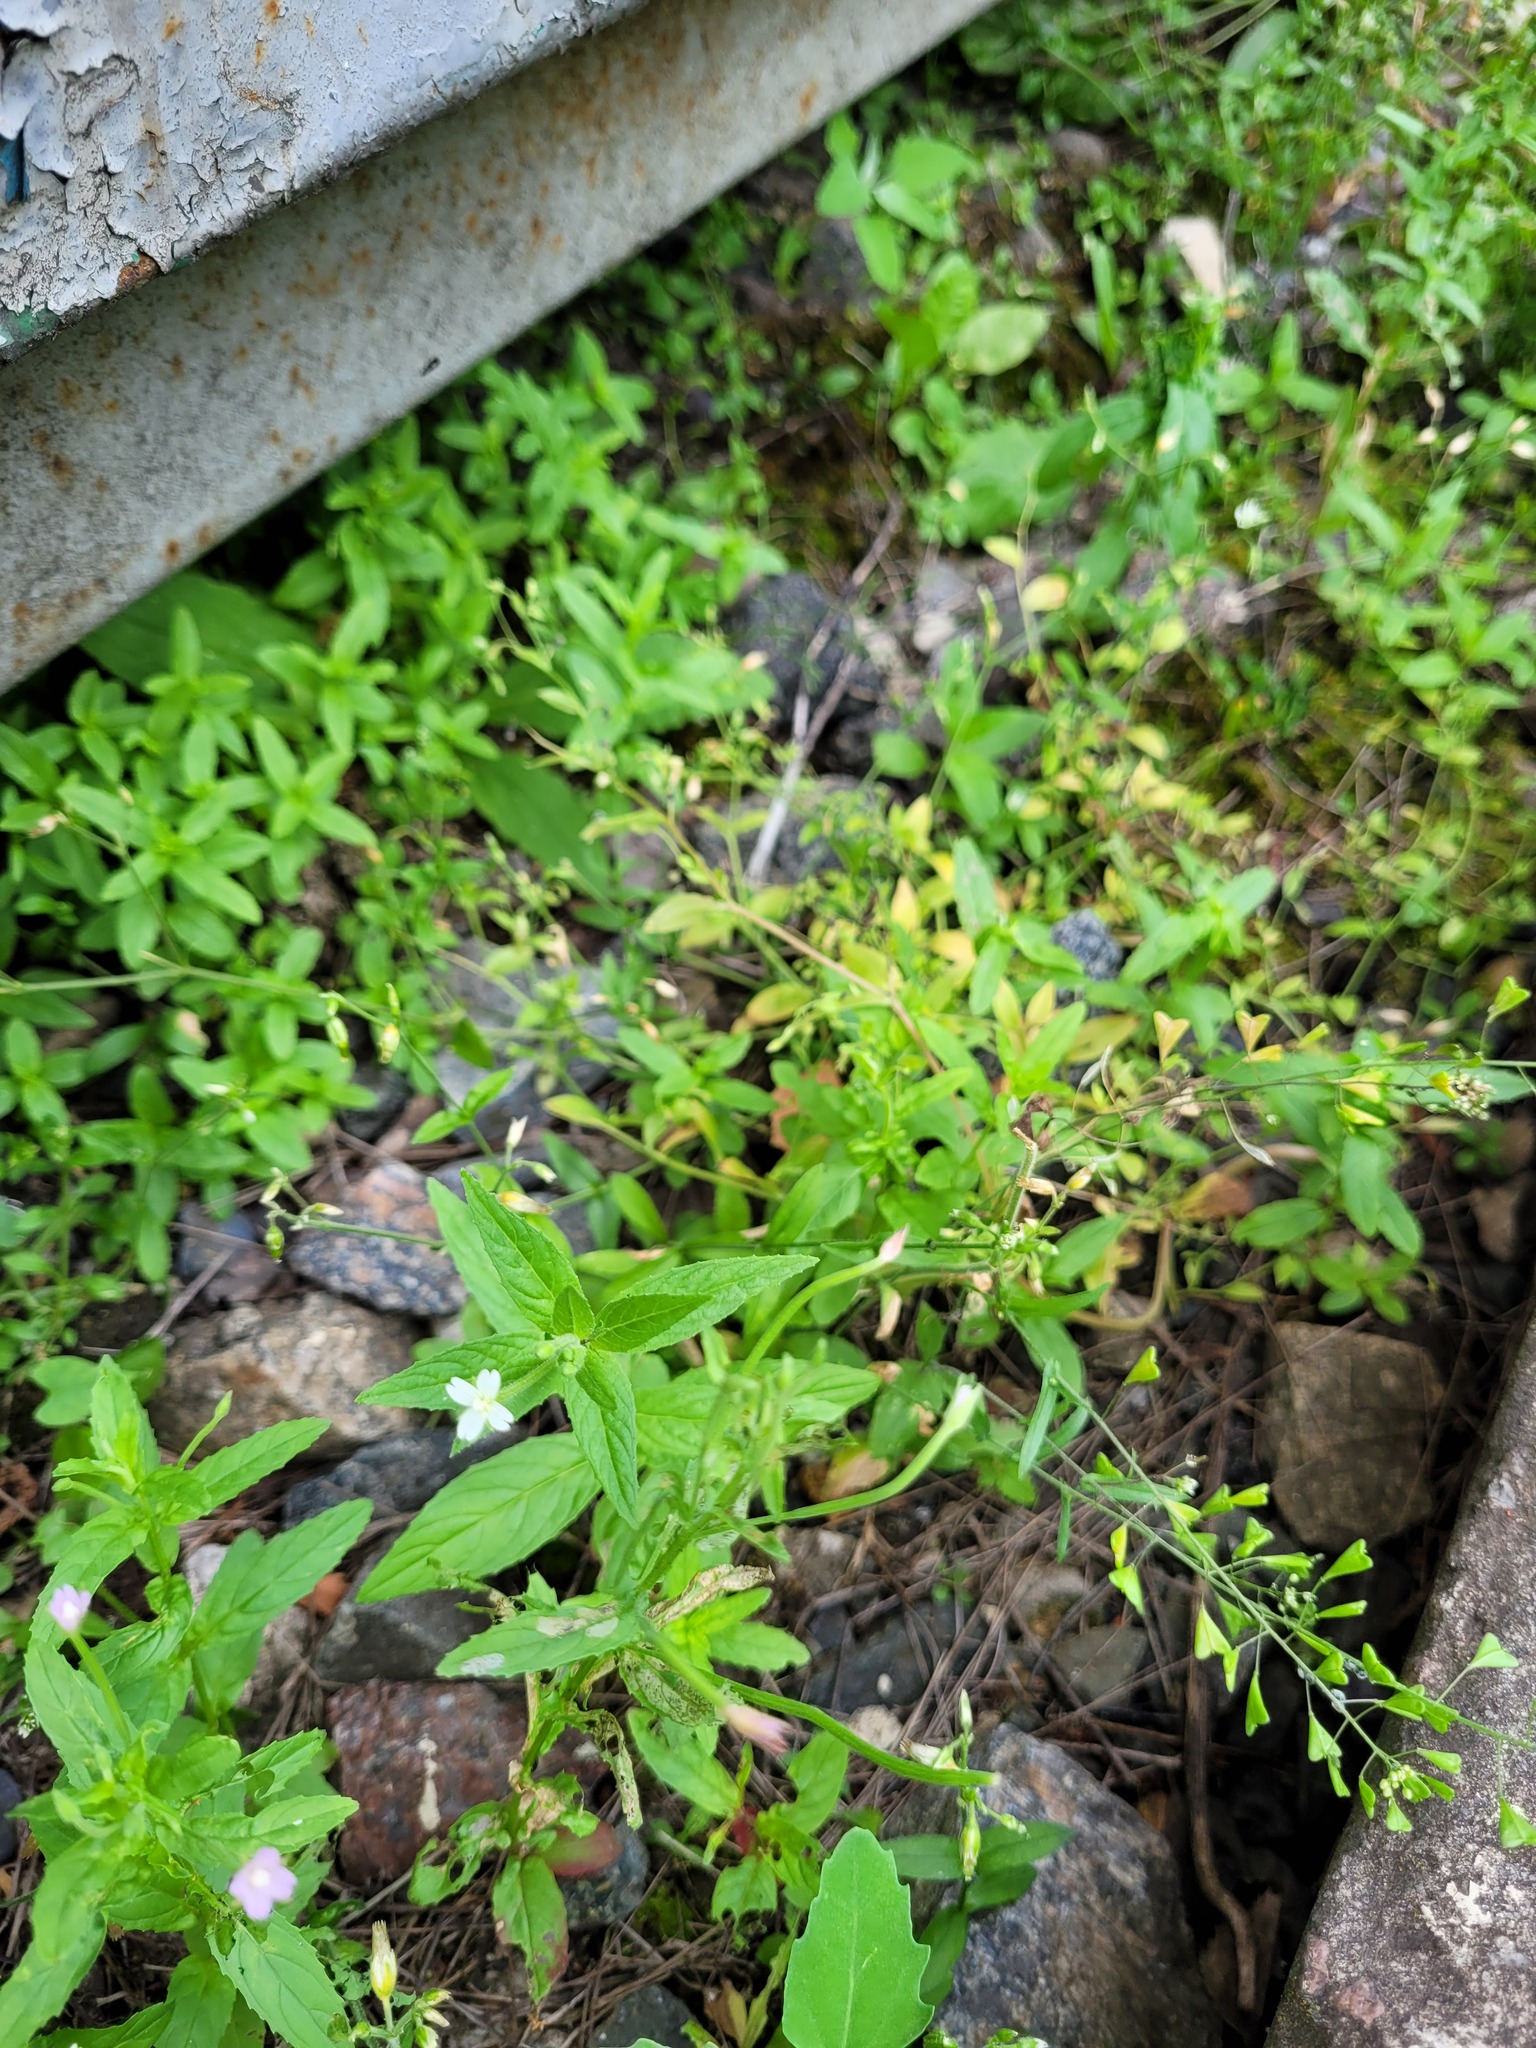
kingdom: Plantae
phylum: Tracheophyta
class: Magnoliopsida
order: Myrtales
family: Onagraceae
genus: Epilobium
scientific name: Epilobium pseudorubescens
